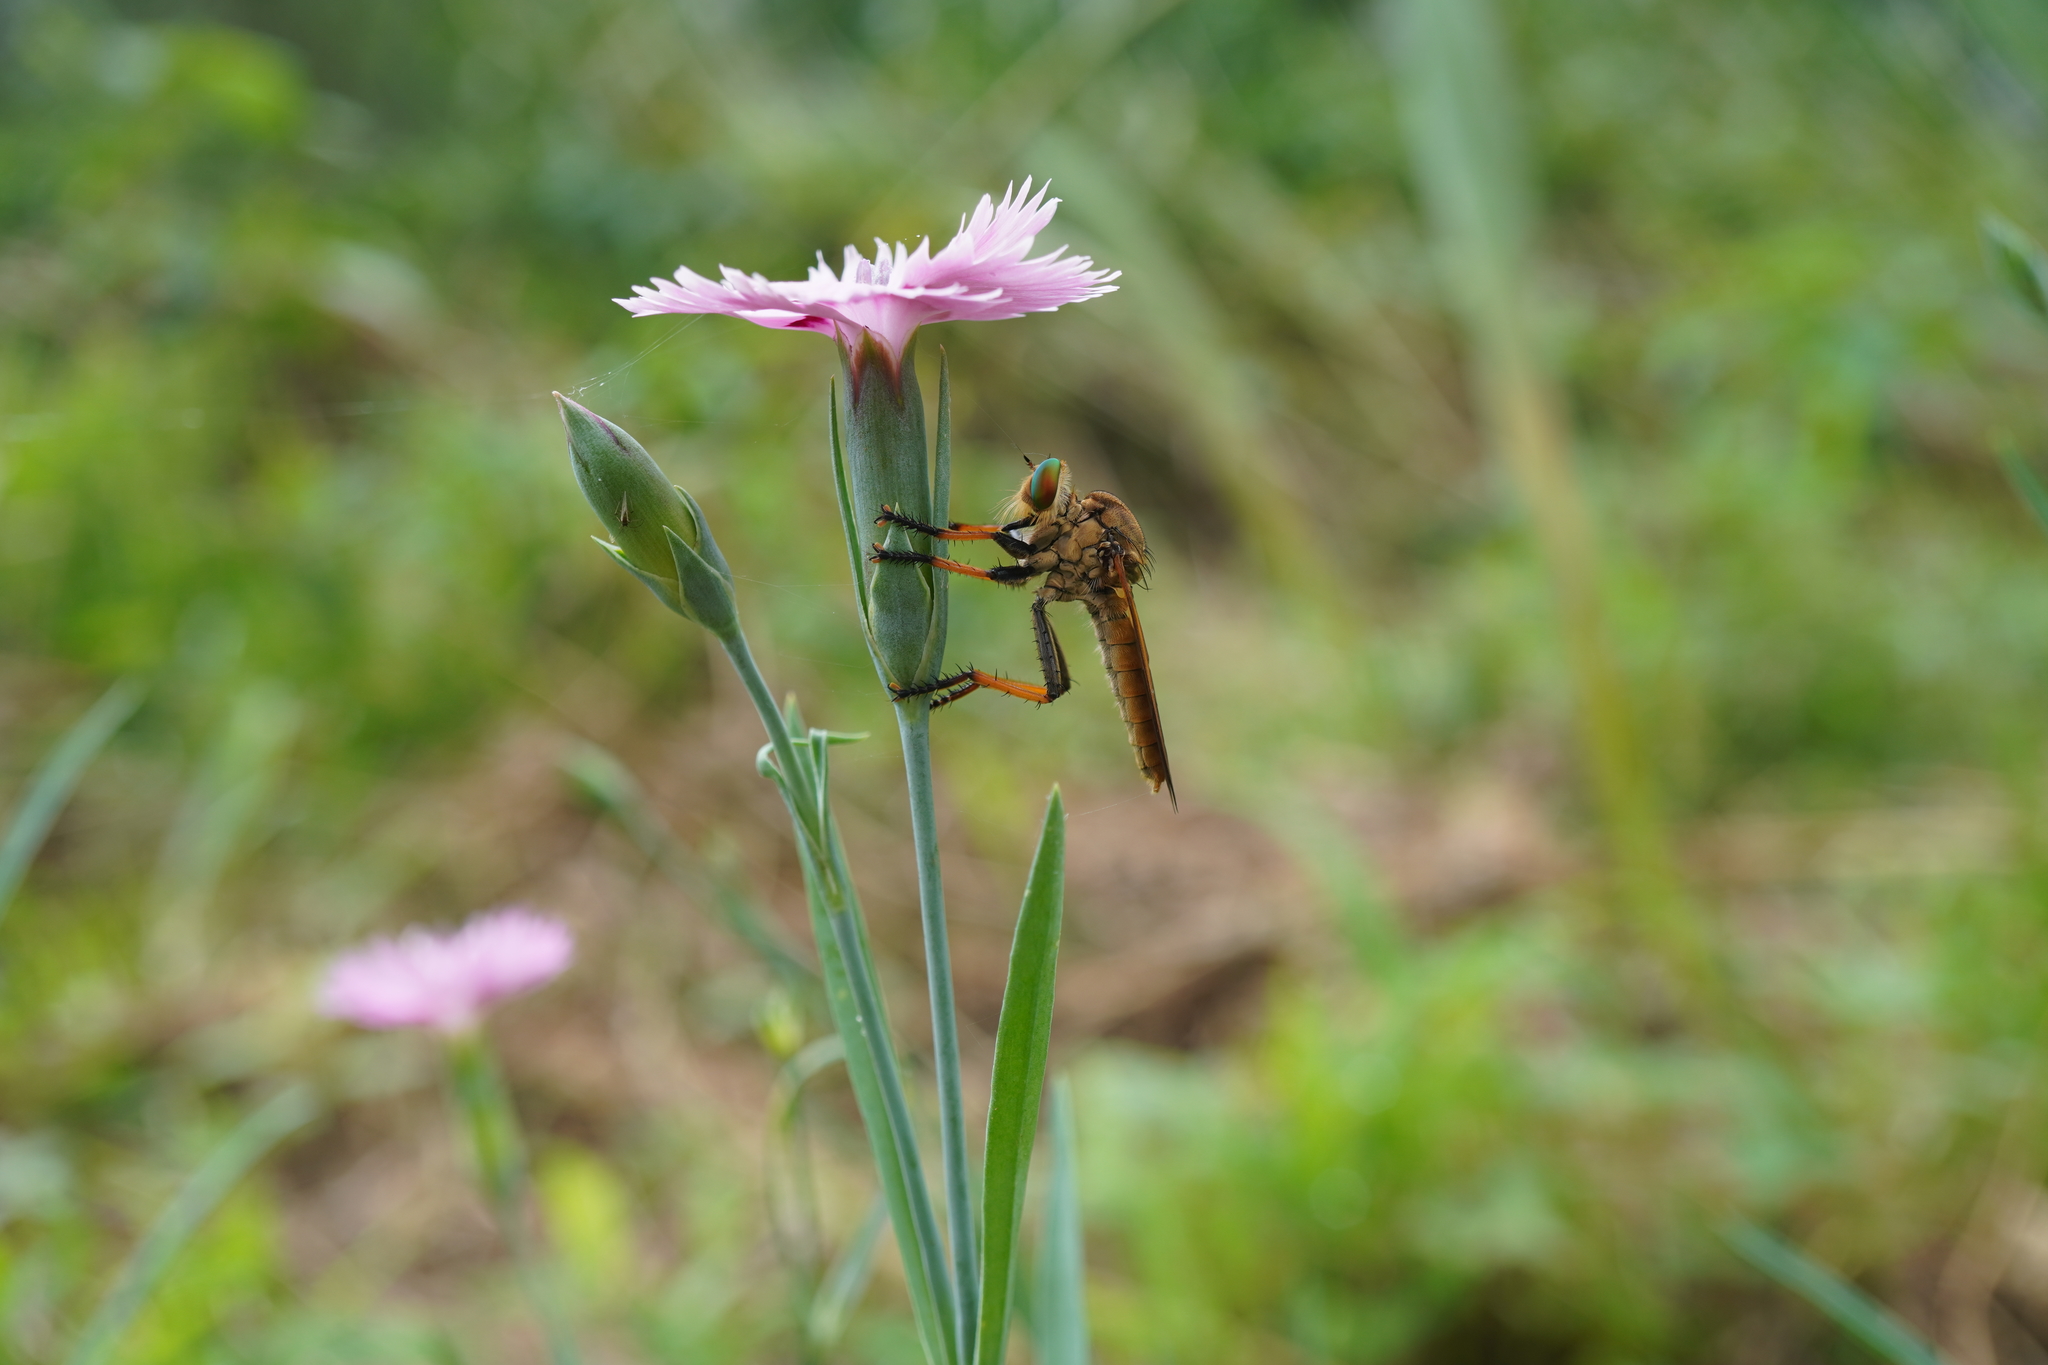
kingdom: Animalia
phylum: Arthropoda
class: Insecta
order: Diptera
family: Asilidae
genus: Cophinopoda
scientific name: Cophinopoda
